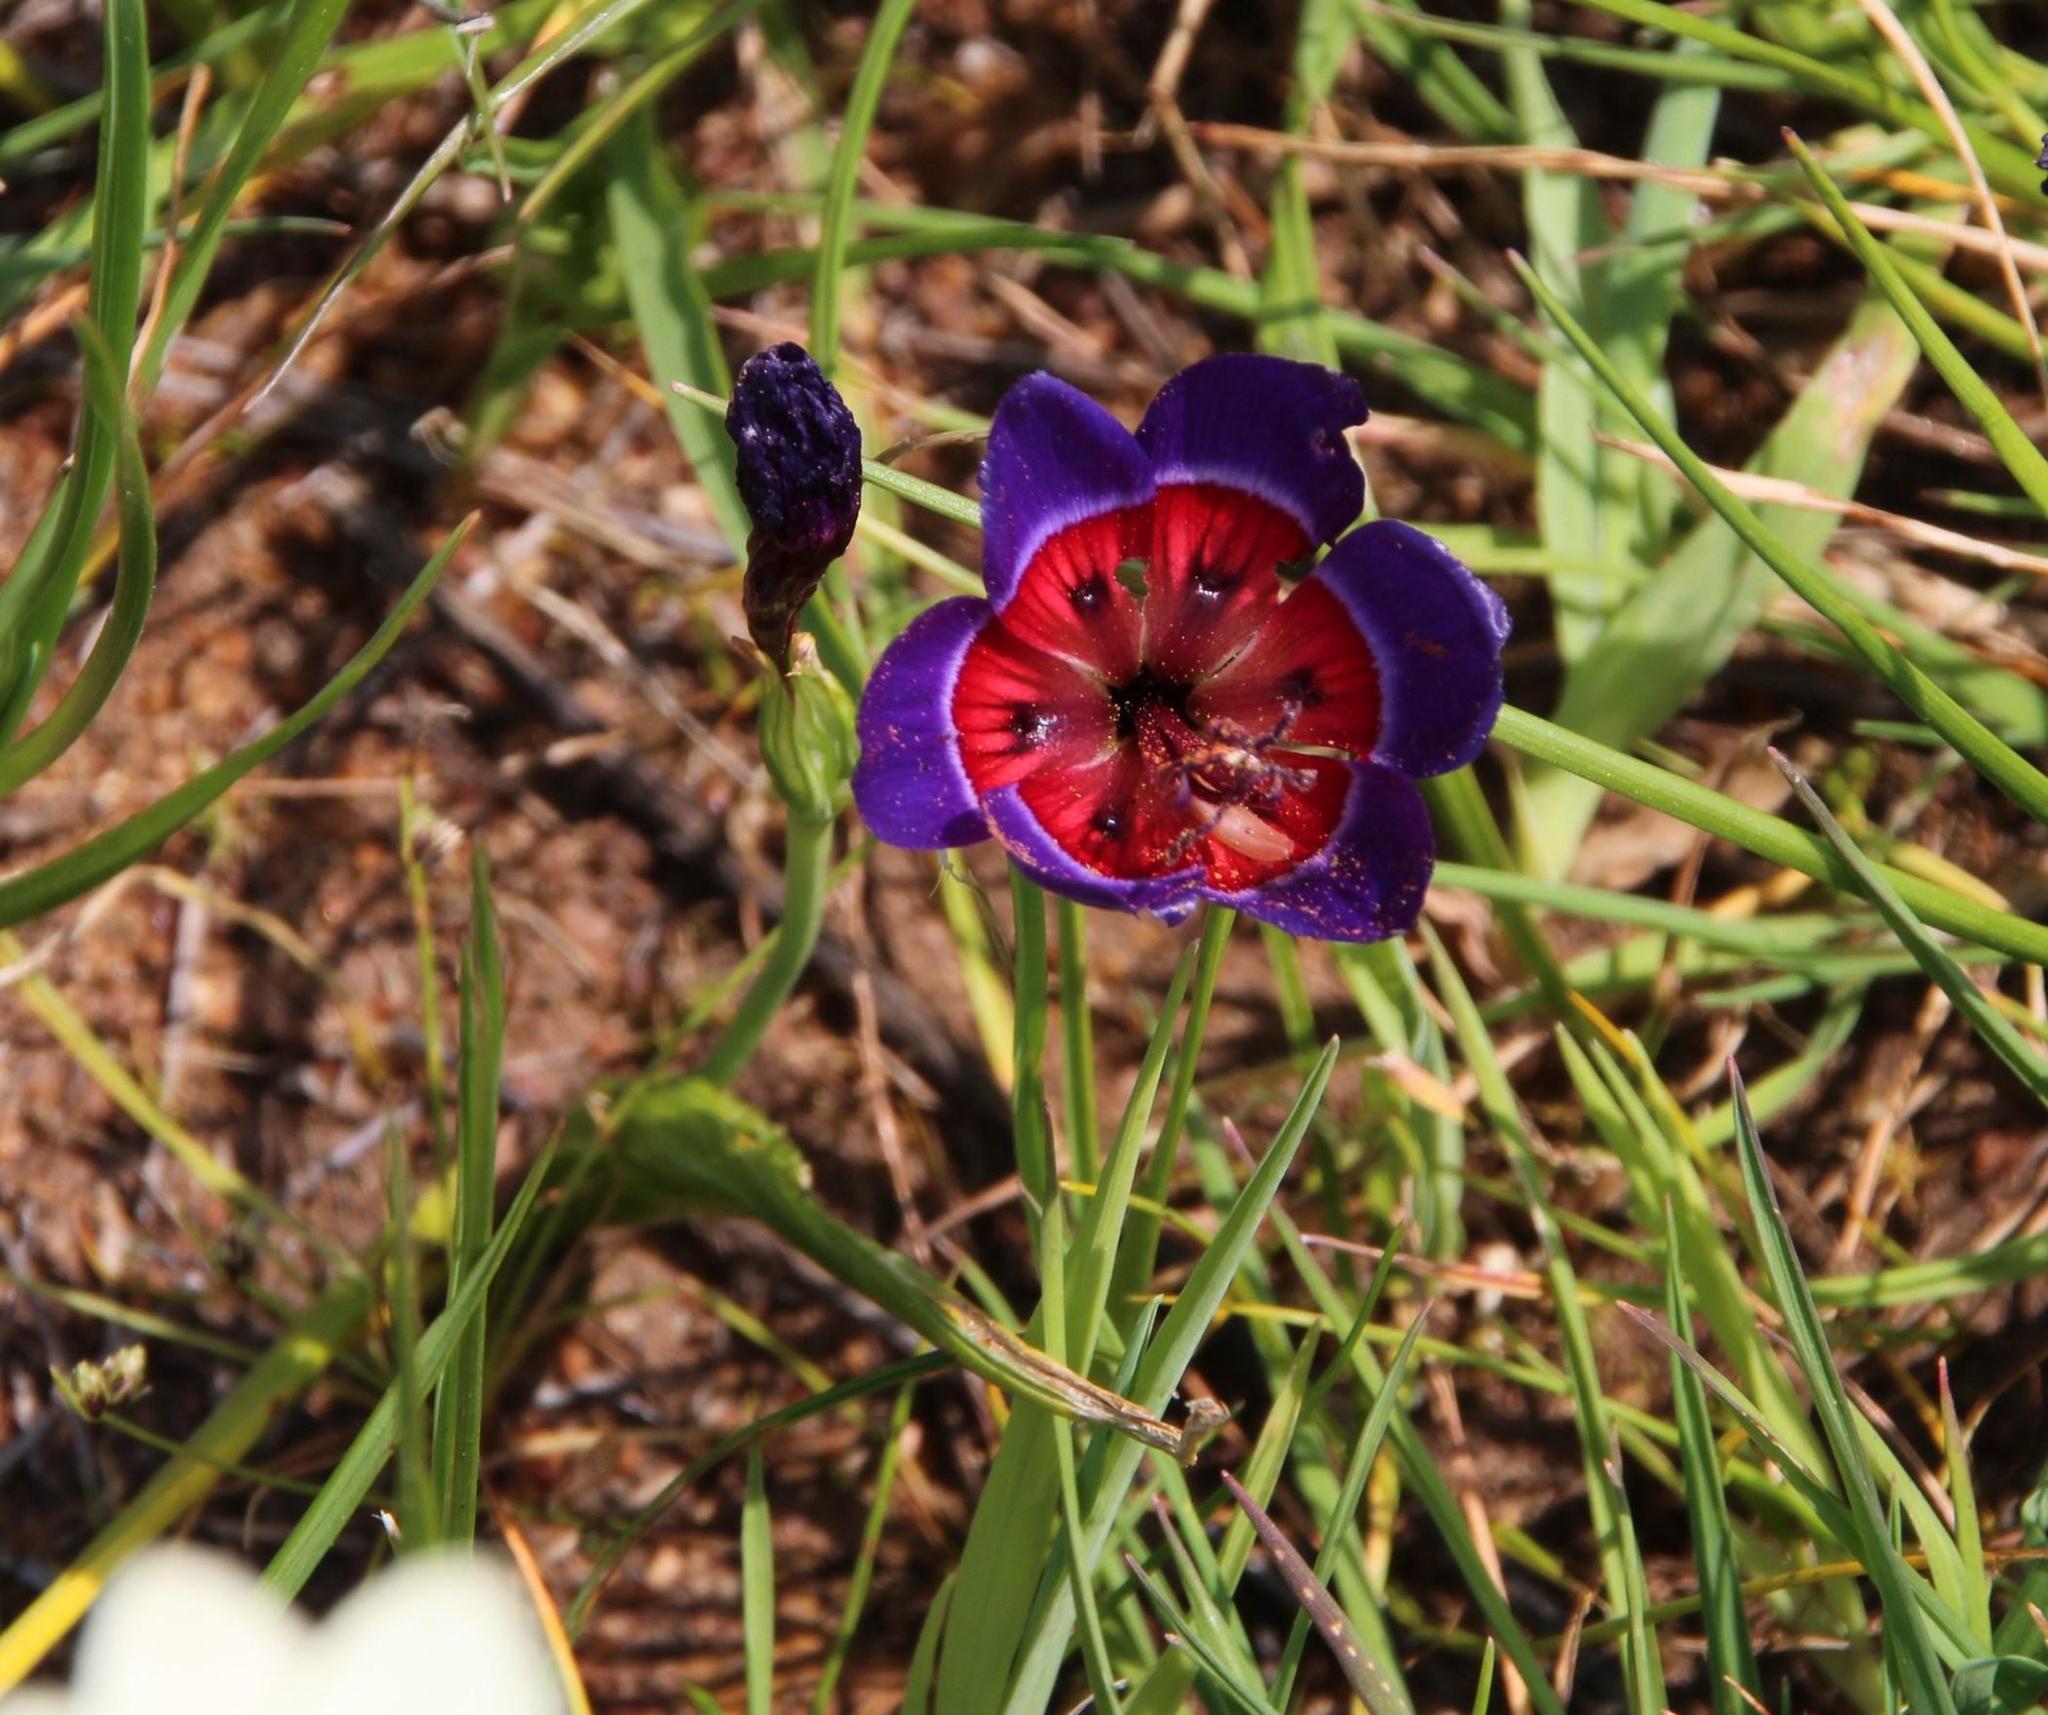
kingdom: Plantae
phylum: Tracheophyta
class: Liliopsida
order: Asparagales
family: Iridaceae
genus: Geissorhiza
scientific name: Geissorhiza radians
